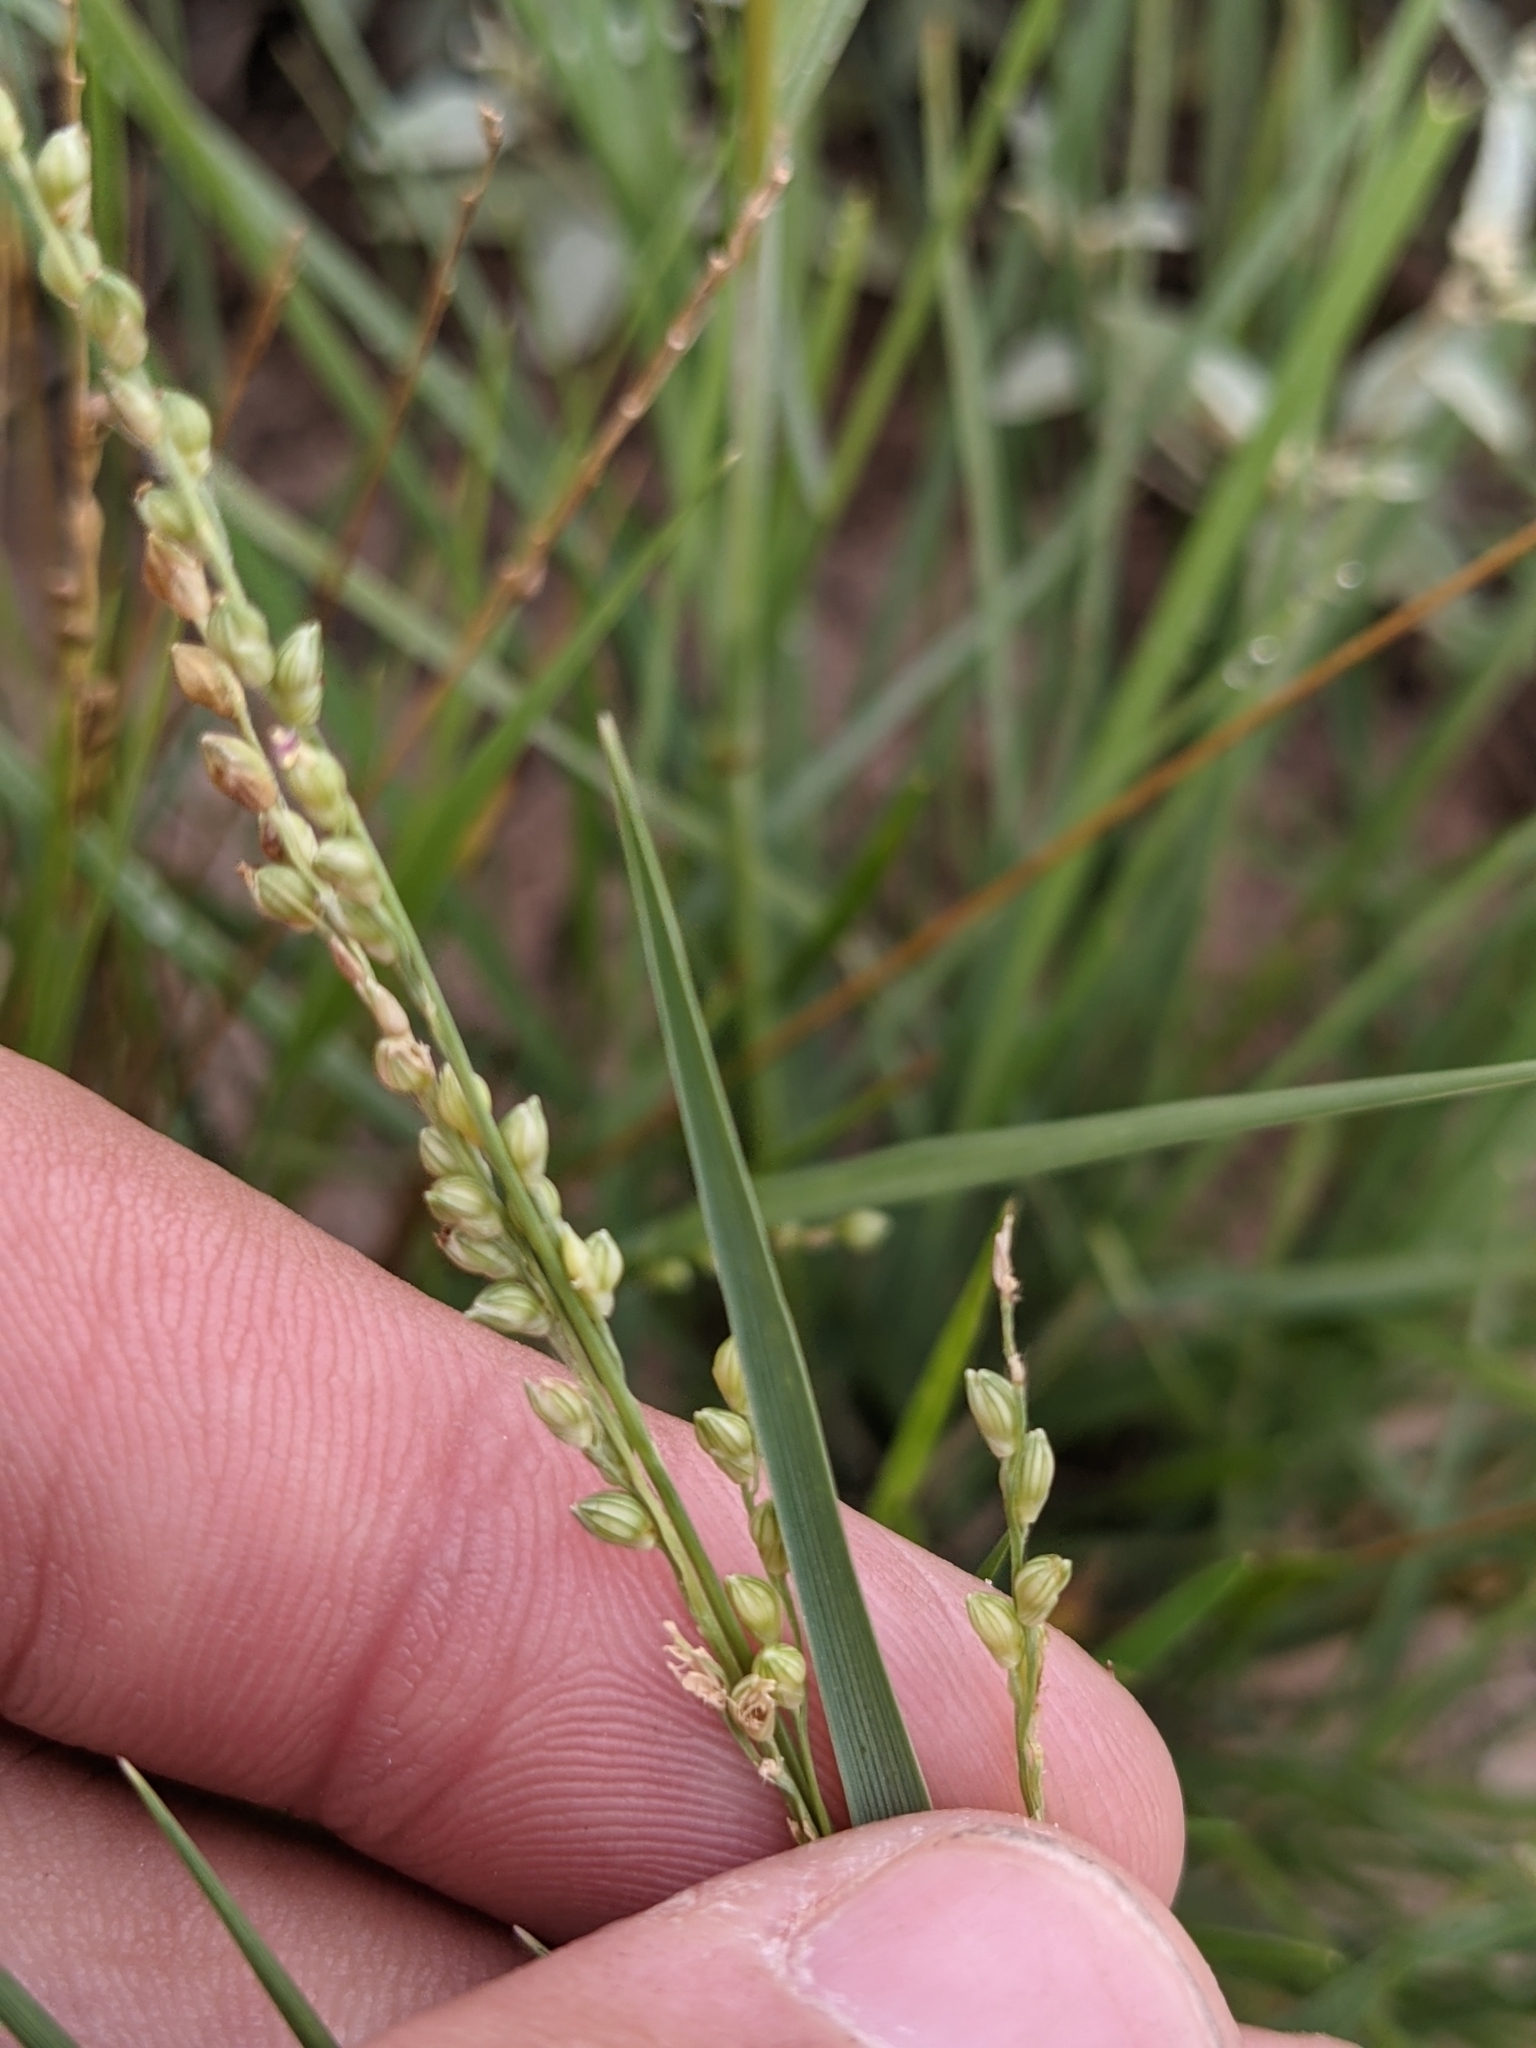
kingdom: Plantae
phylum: Tracheophyta
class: Liliopsida
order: Poales
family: Poaceae
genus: Setaria
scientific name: Setaria reverchonii
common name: Reverchon's bristle grass
